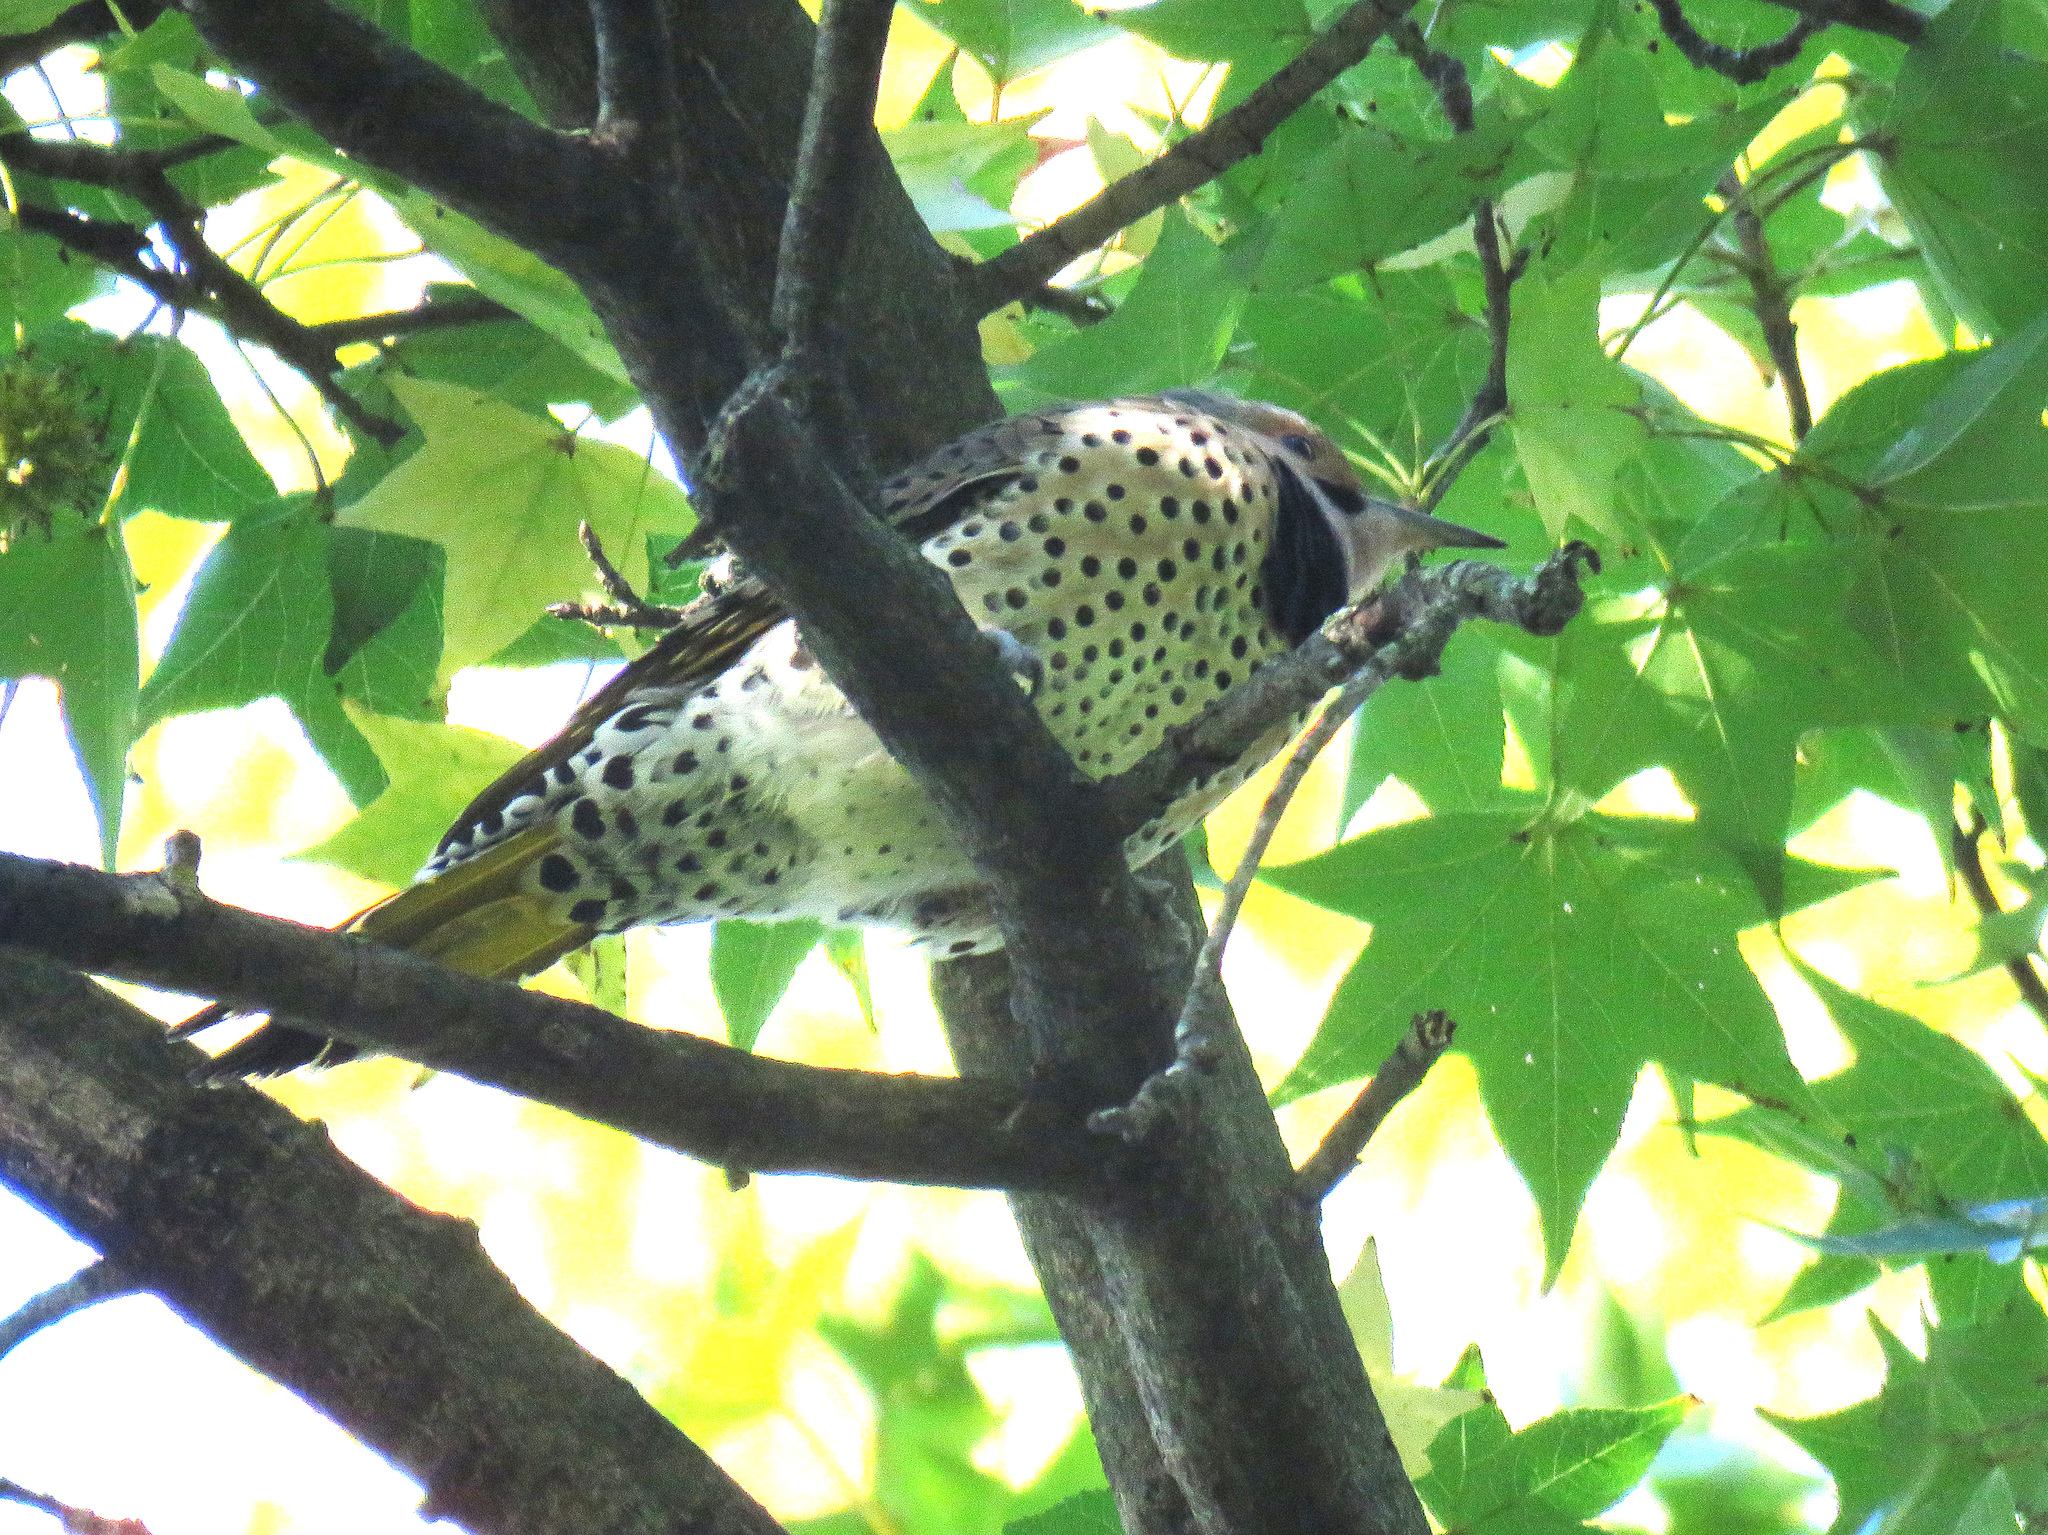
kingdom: Animalia
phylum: Chordata
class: Aves
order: Piciformes
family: Picidae
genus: Colaptes
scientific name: Colaptes auratus
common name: Northern flicker
